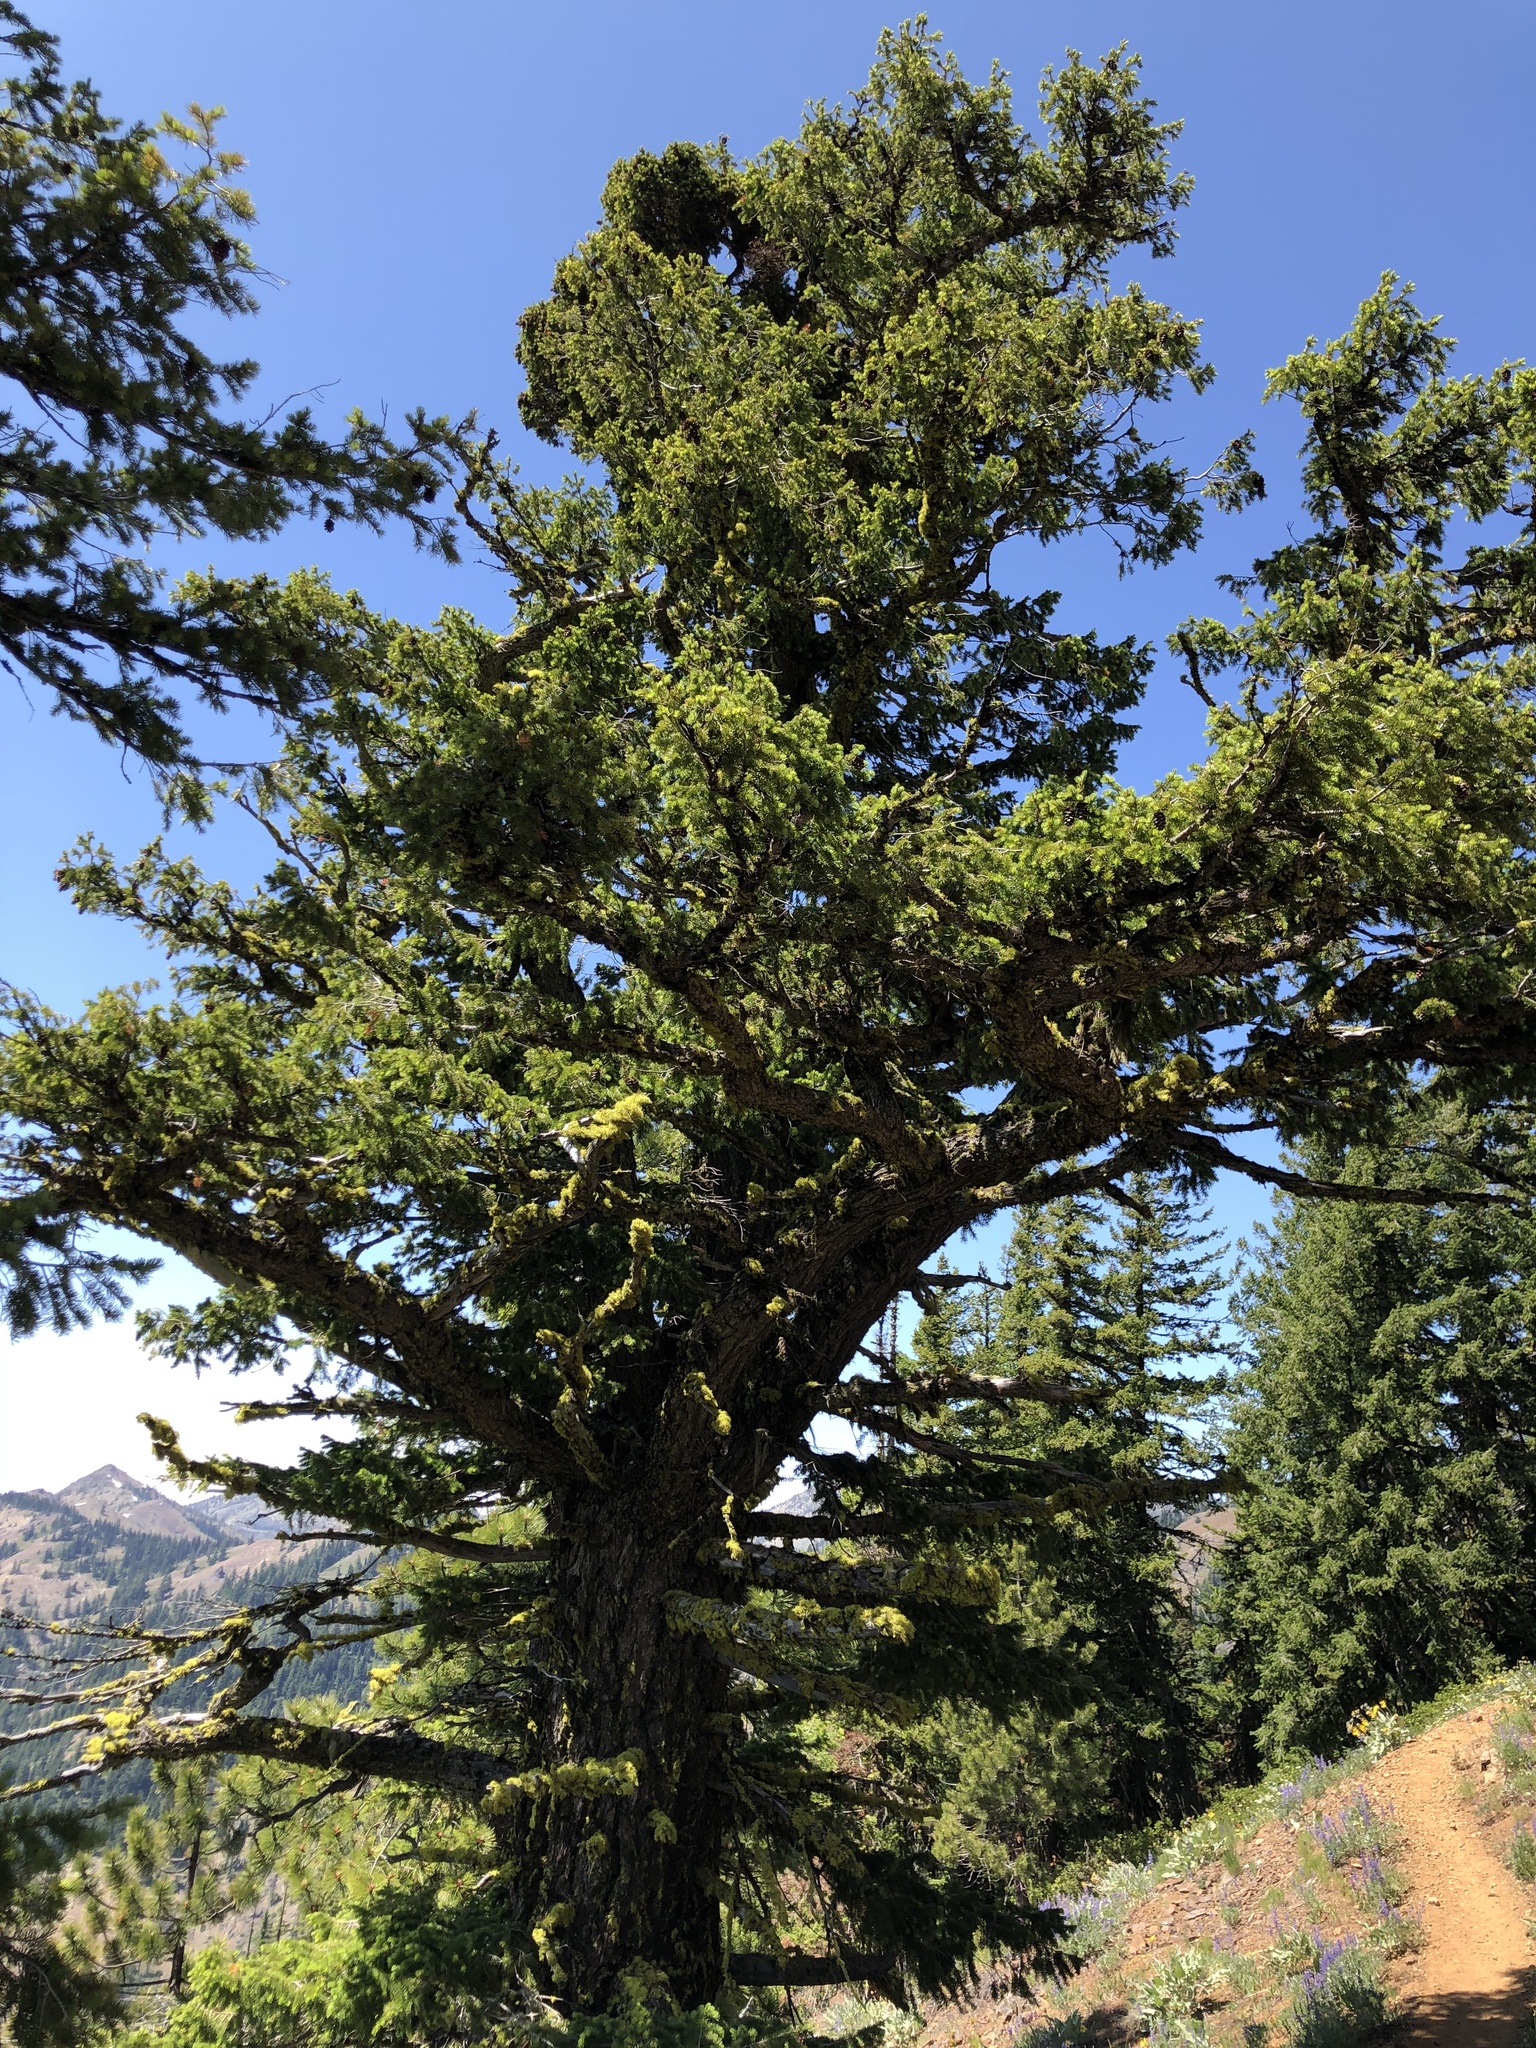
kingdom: Plantae
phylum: Tracheophyta
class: Pinopsida
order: Pinales
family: Pinaceae
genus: Pseudotsuga
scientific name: Pseudotsuga menziesii
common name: Douglas fir
